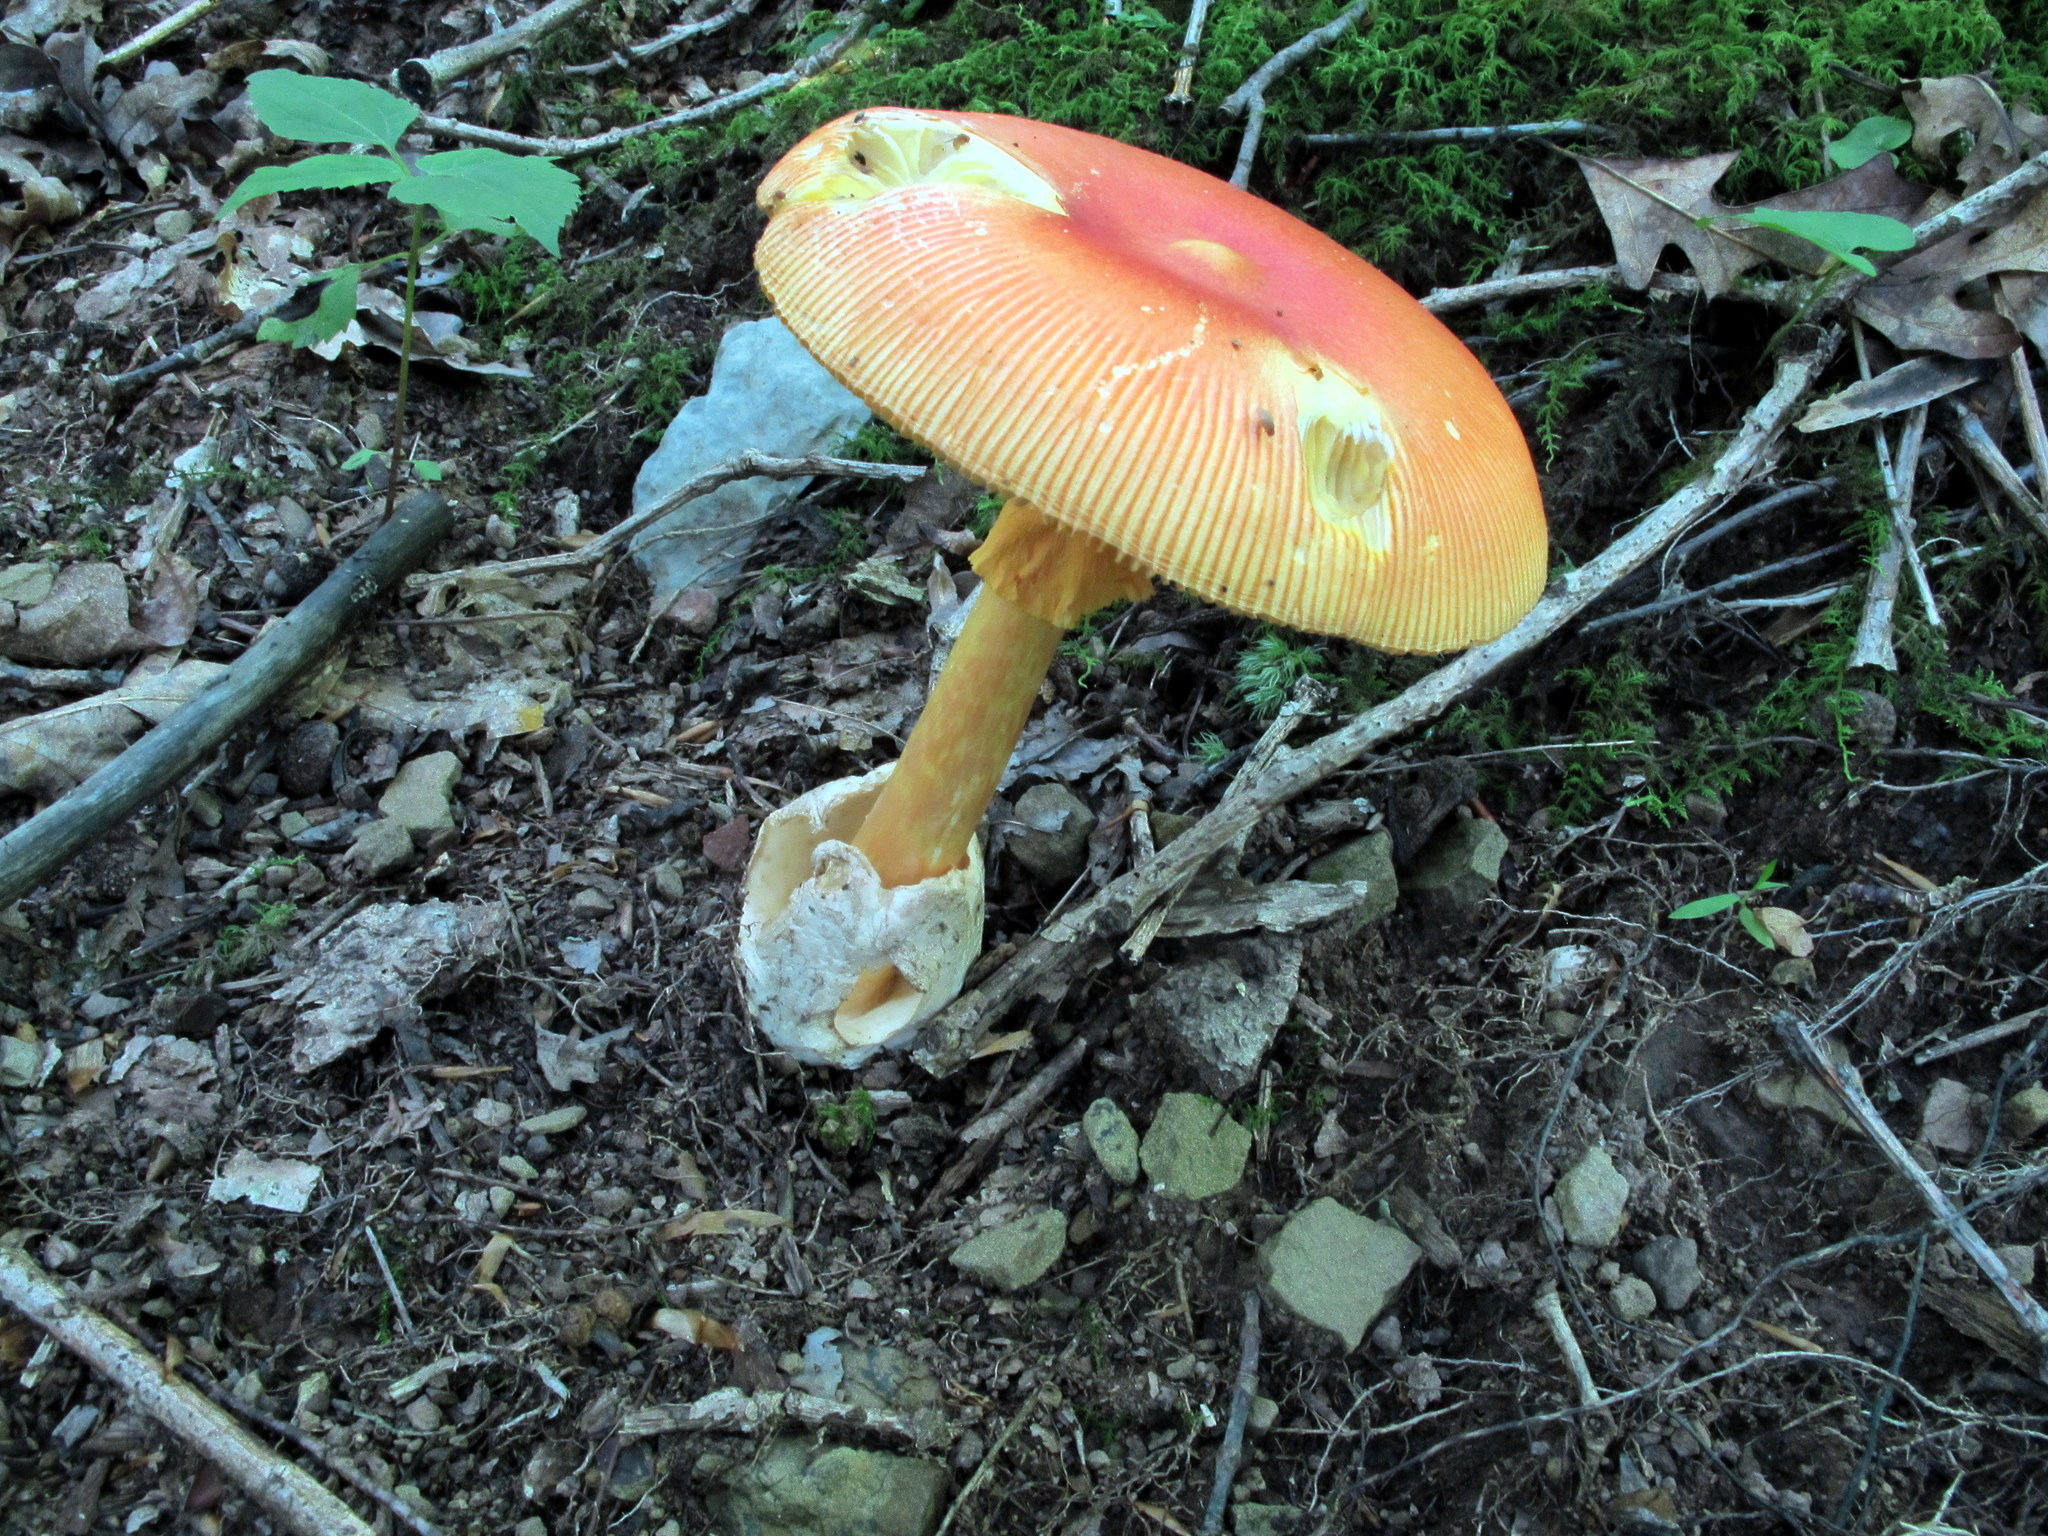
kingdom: Fungi
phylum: Basidiomycota
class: Agaricomycetes
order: Agaricales
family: Amanitaceae
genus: Amanita
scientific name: Amanita jacksonii
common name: Jackson's slender caesar
